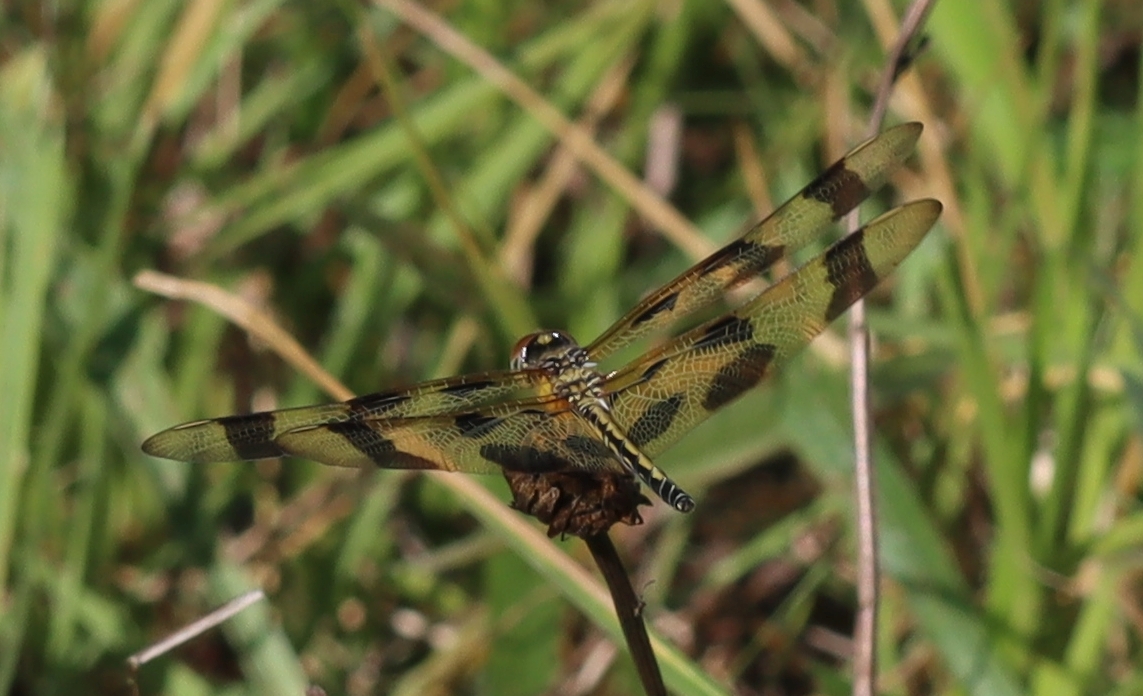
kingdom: Animalia
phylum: Arthropoda
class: Insecta
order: Odonata
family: Libellulidae
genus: Celithemis
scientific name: Celithemis eponina
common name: Halloween pennant
